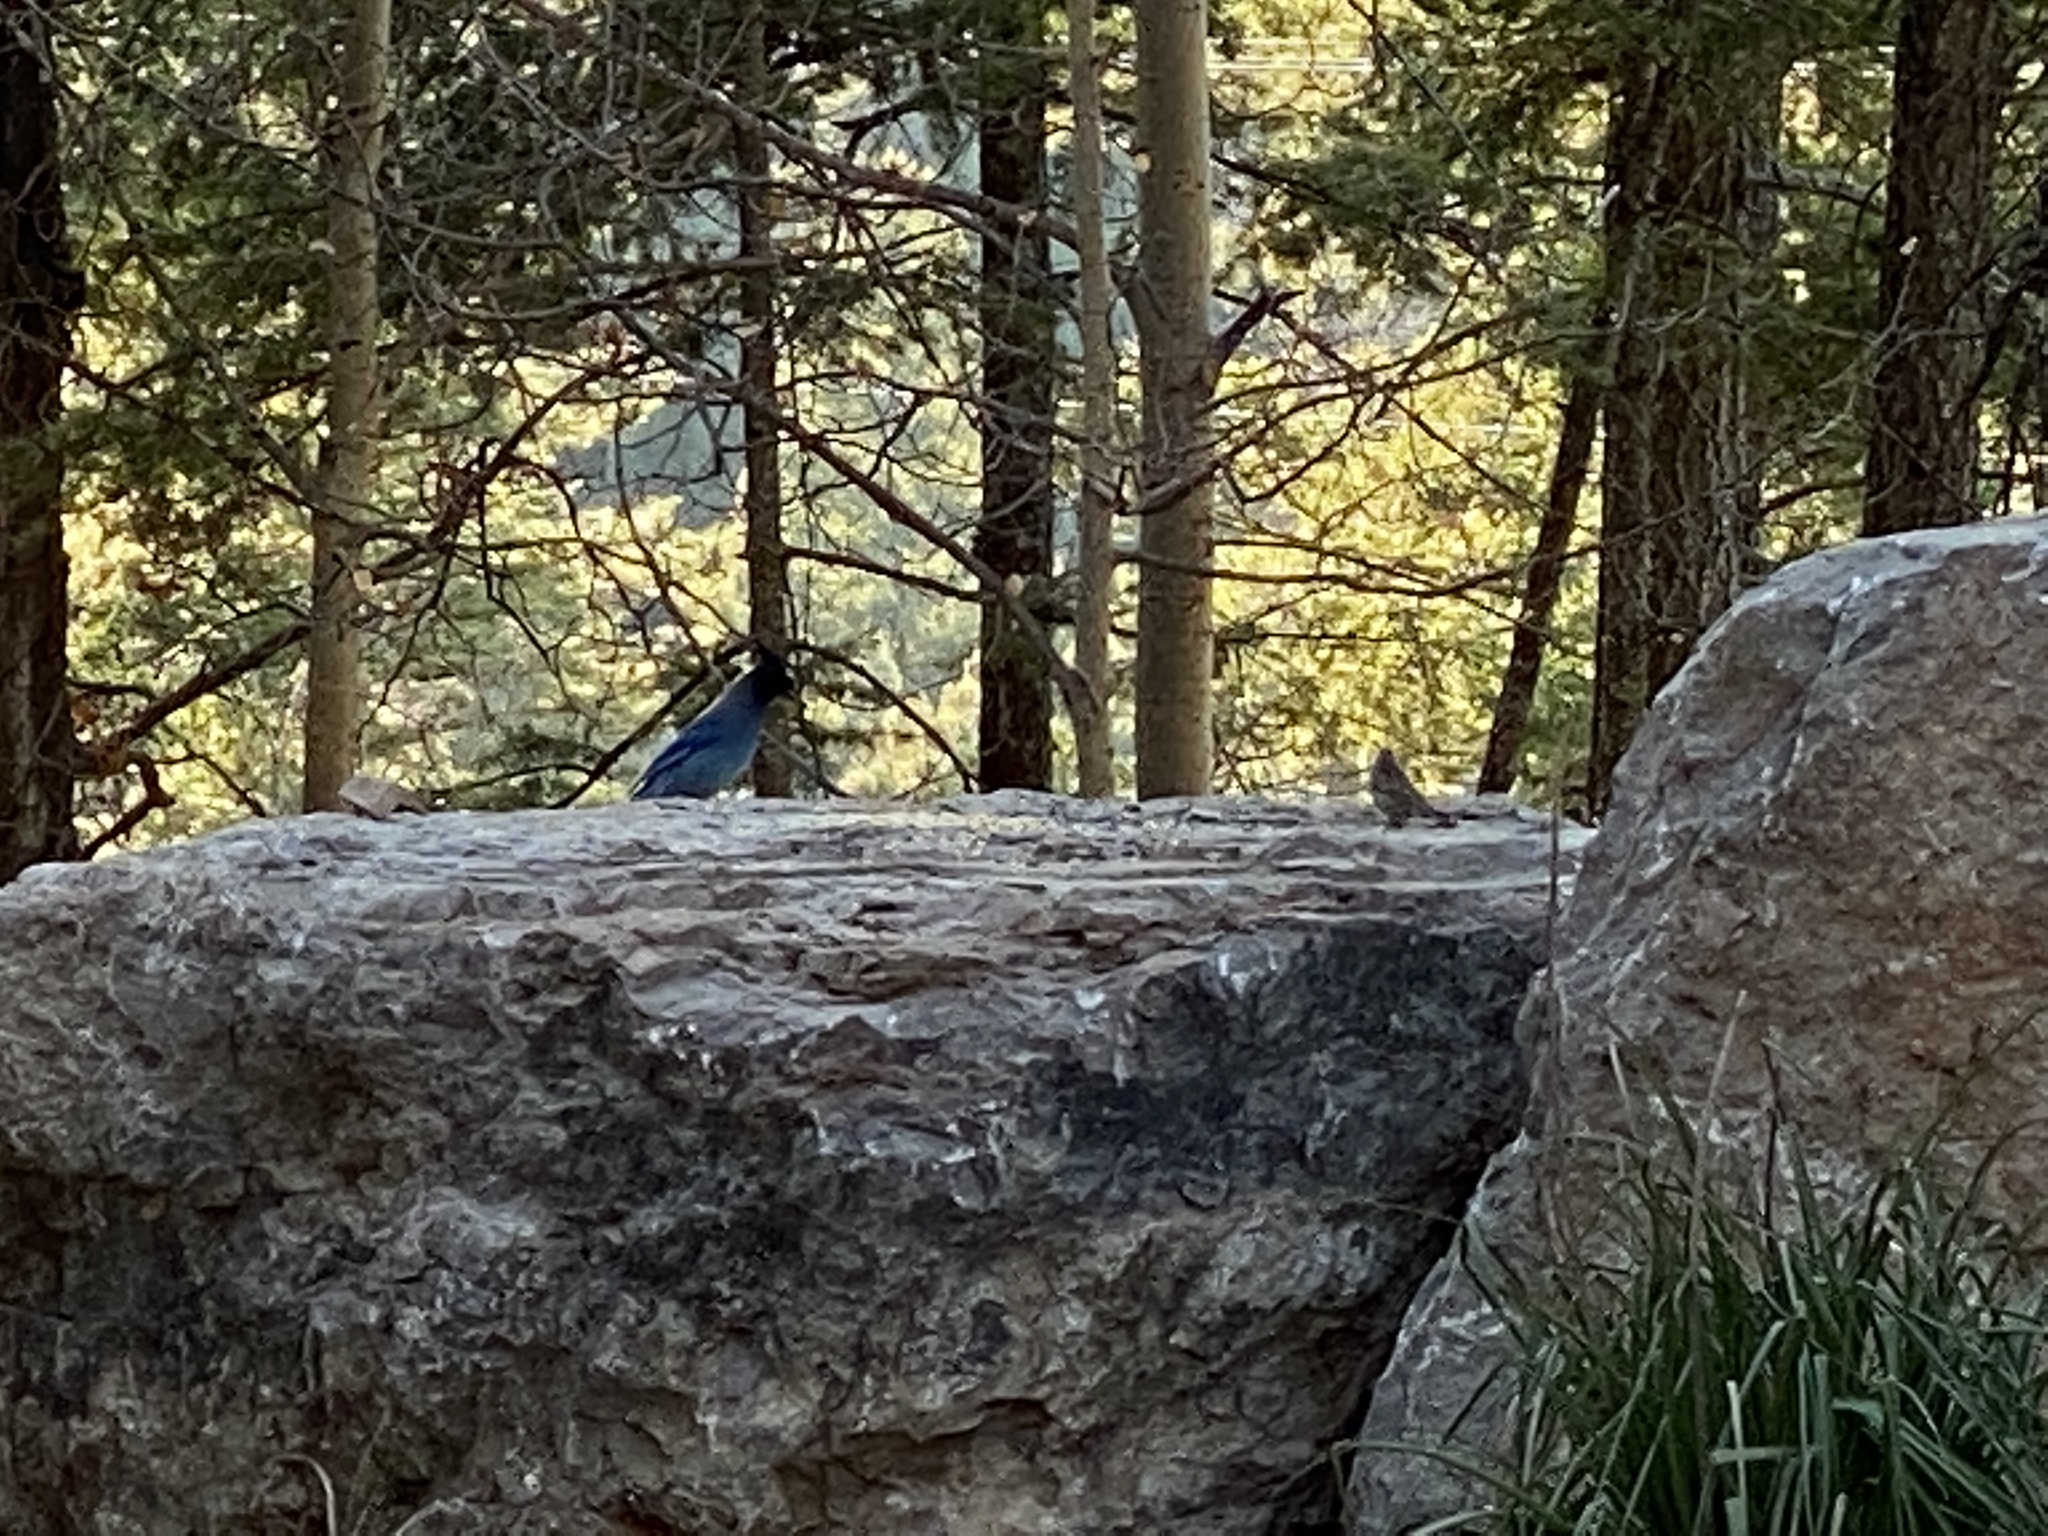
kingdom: Animalia
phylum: Chordata
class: Aves
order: Passeriformes
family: Corvidae
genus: Cyanocitta
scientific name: Cyanocitta stelleri
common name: Steller's jay
